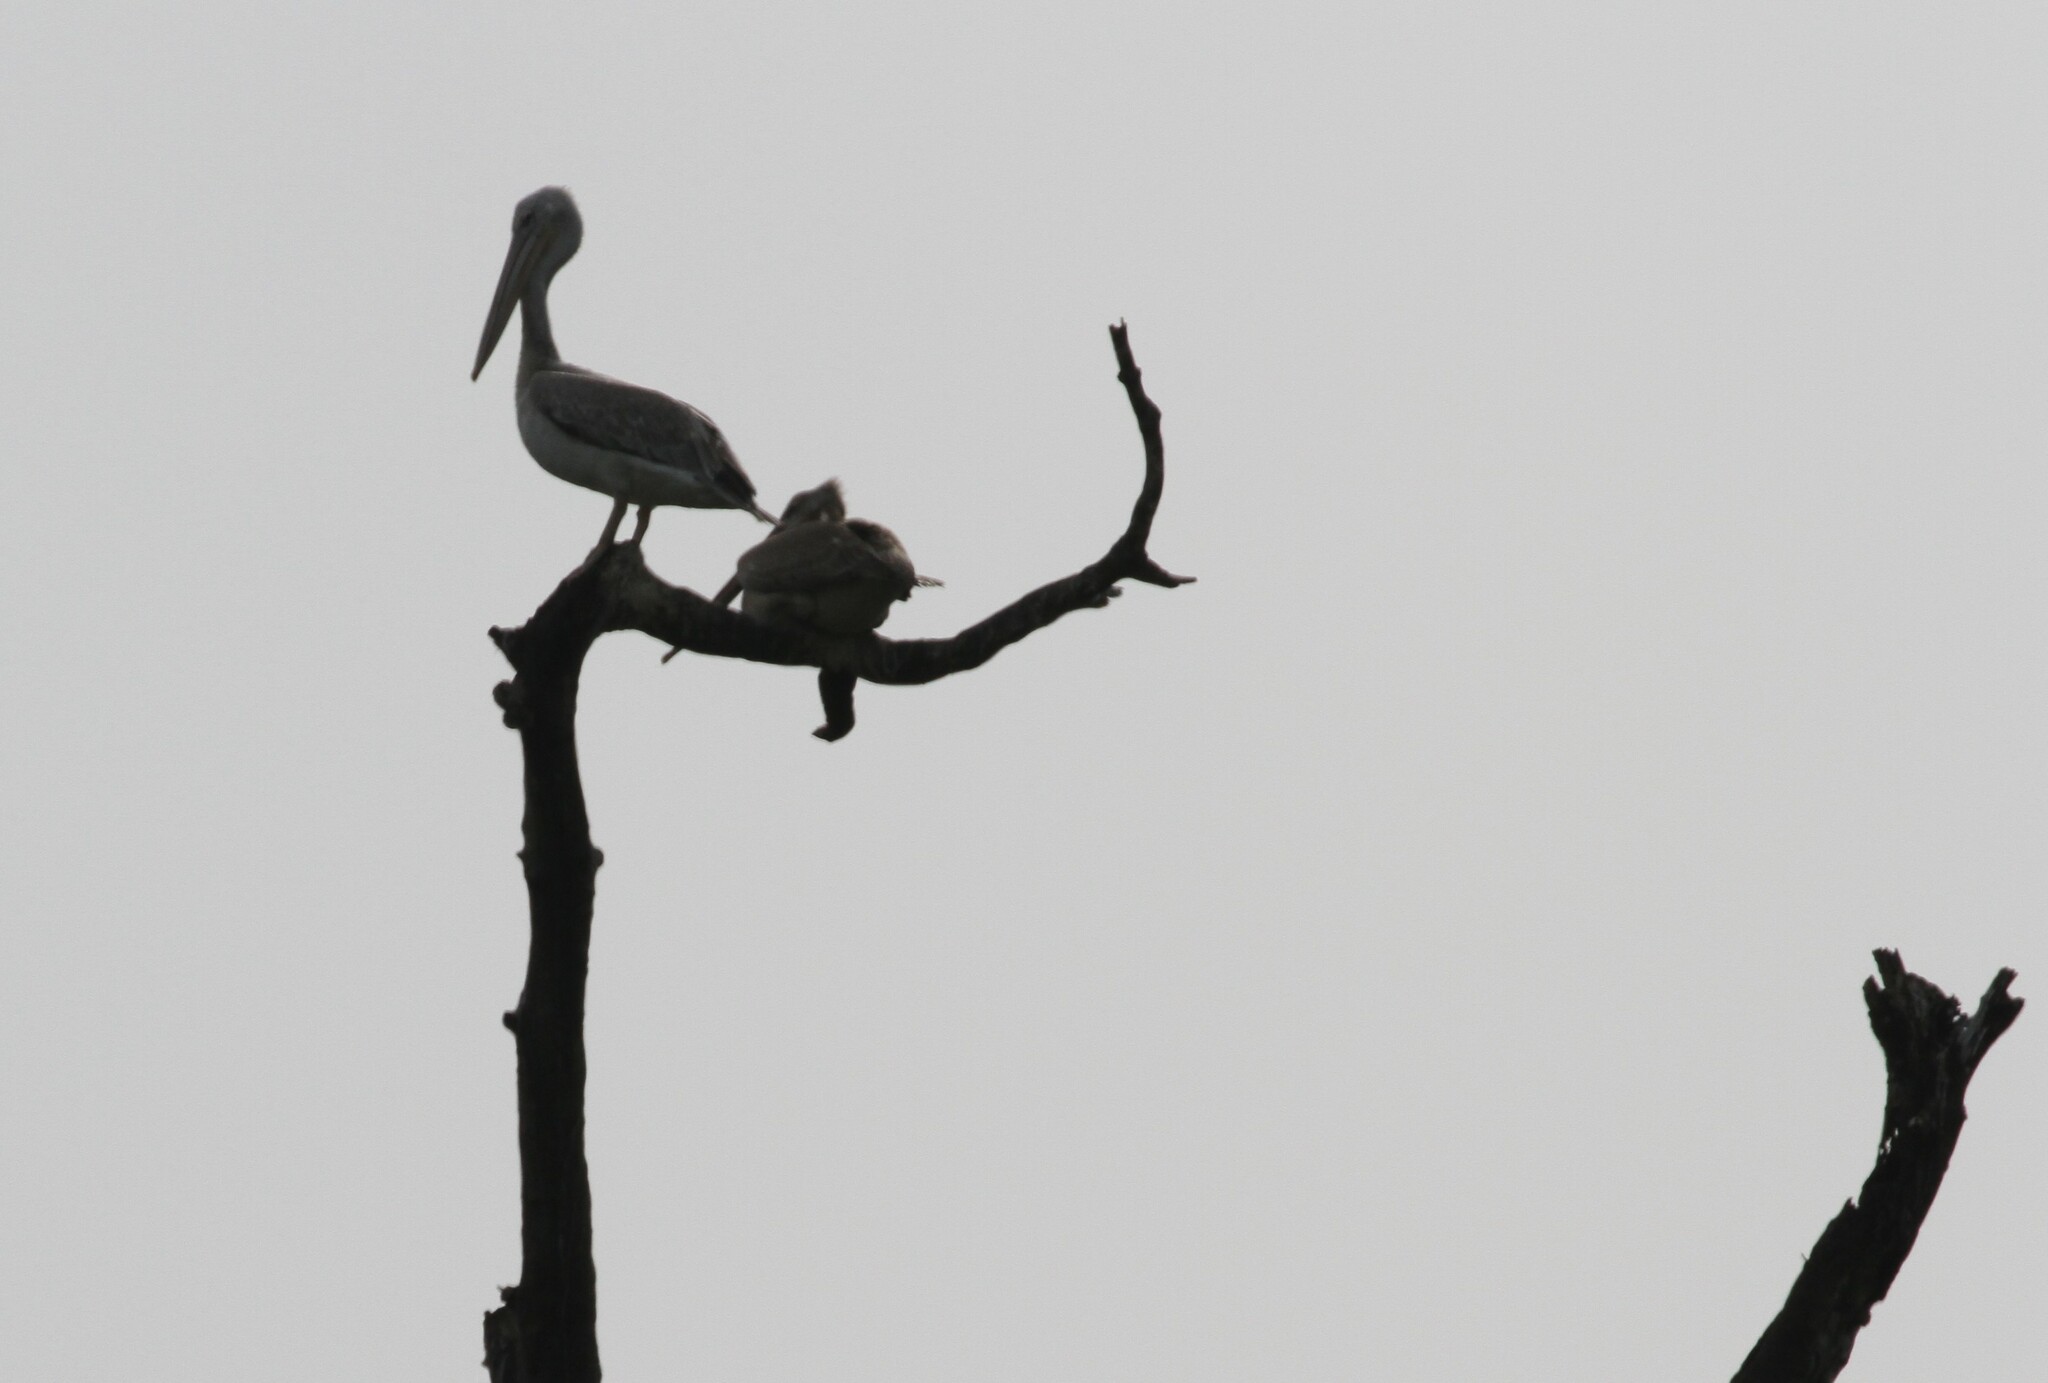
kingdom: Animalia
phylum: Chordata
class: Aves
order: Pelecaniformes
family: Pelecanidae
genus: Pelecanus
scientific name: Pelecanus rufescens
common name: Pink-backed pelican
